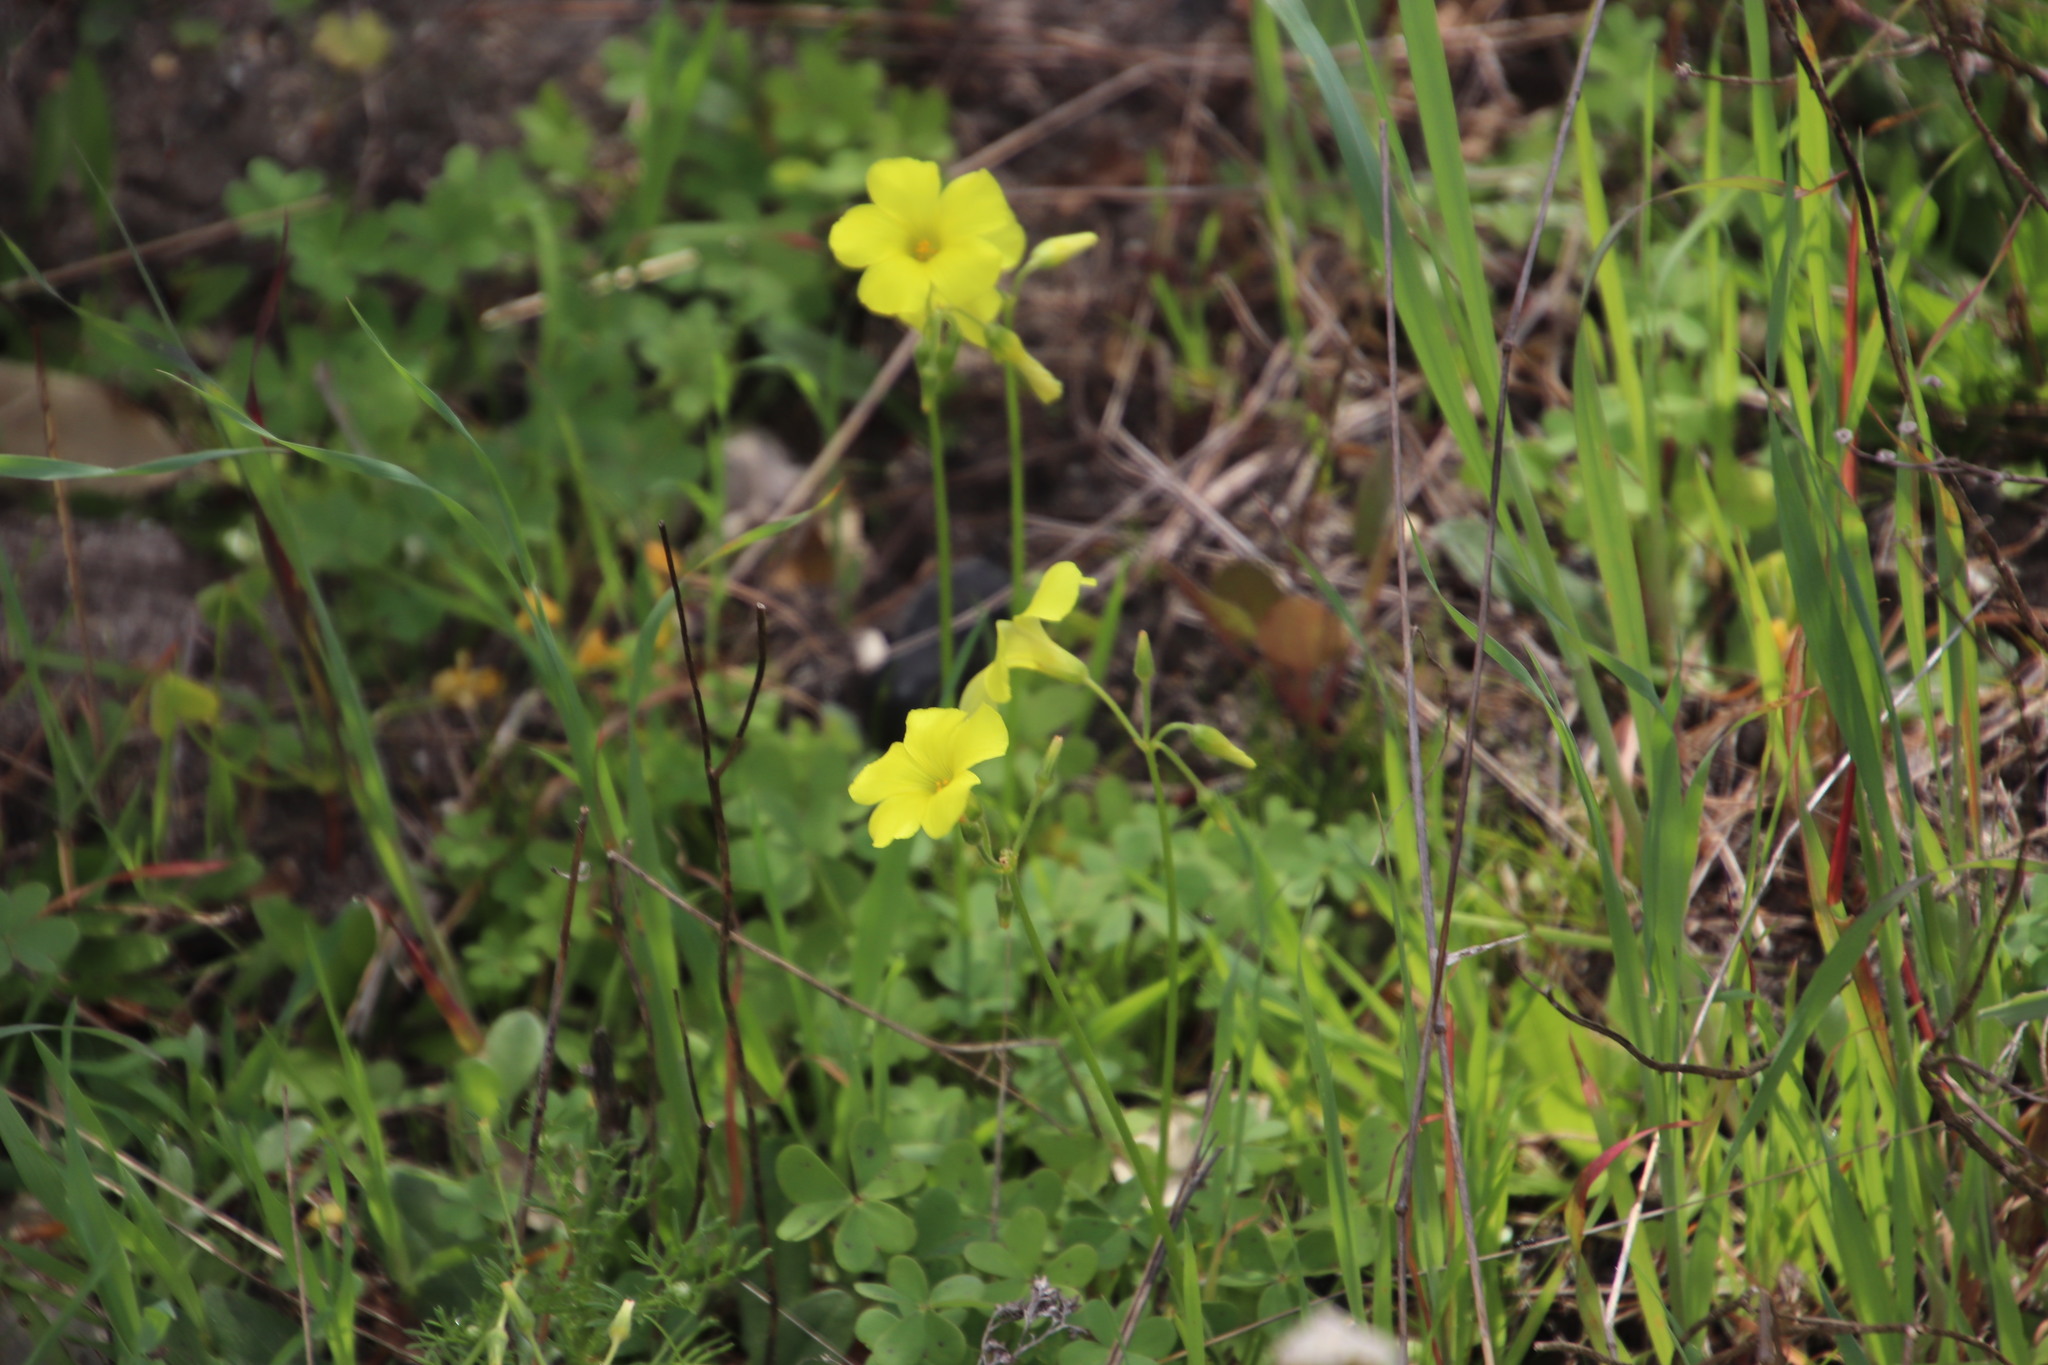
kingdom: Plantae
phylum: Tracheophyta
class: Magnoliopsida
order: Oxalidales
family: Oxalidaceae
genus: Oxalis
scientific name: Oxalis pes-caprae
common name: Bermuda-buttercup
